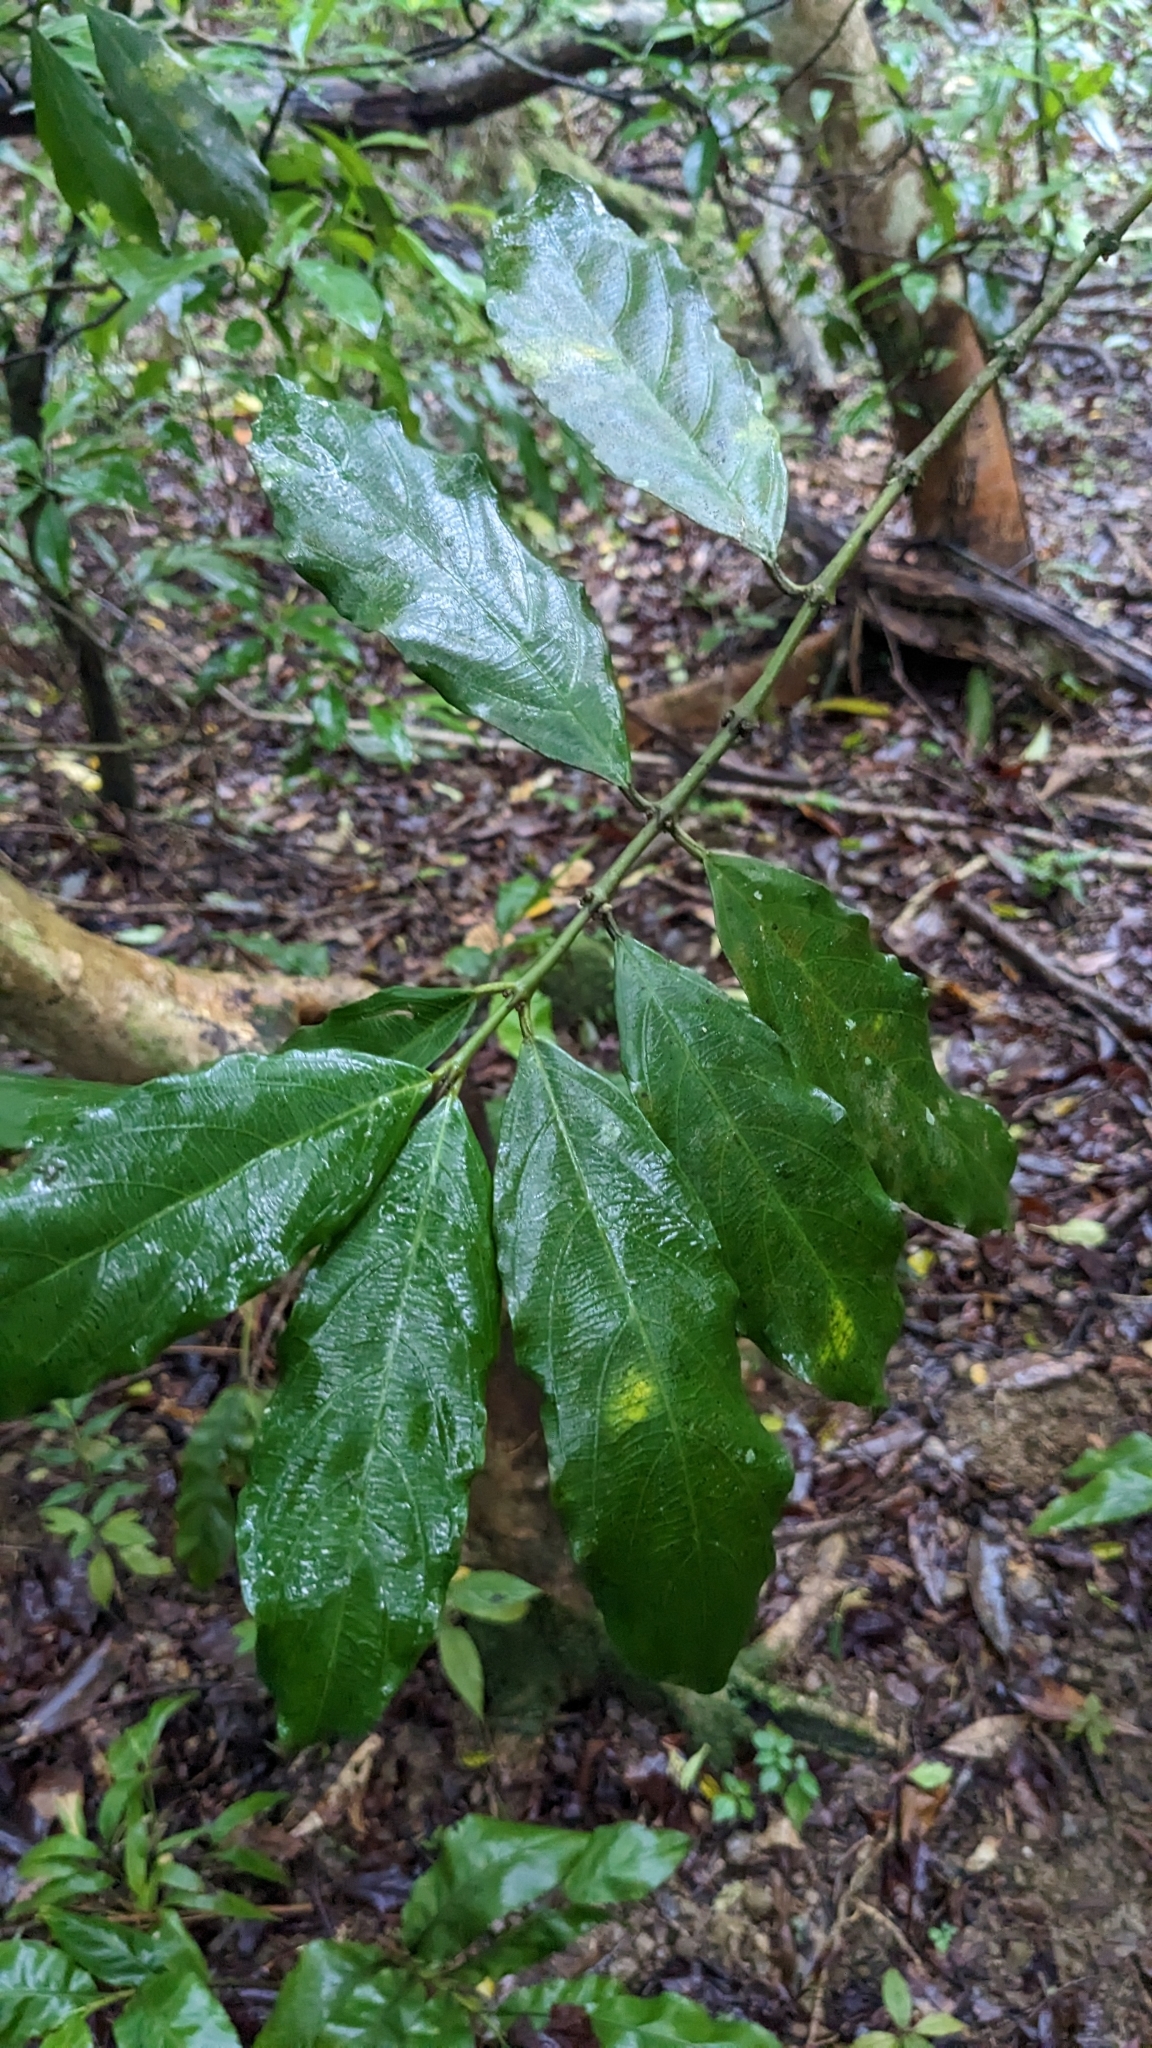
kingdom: Plantae
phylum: Tracheophyta
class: Magnoliopsida
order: Gentianales
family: Rubiaceae
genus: Lasianthus
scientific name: Lasianthus verticillatus
